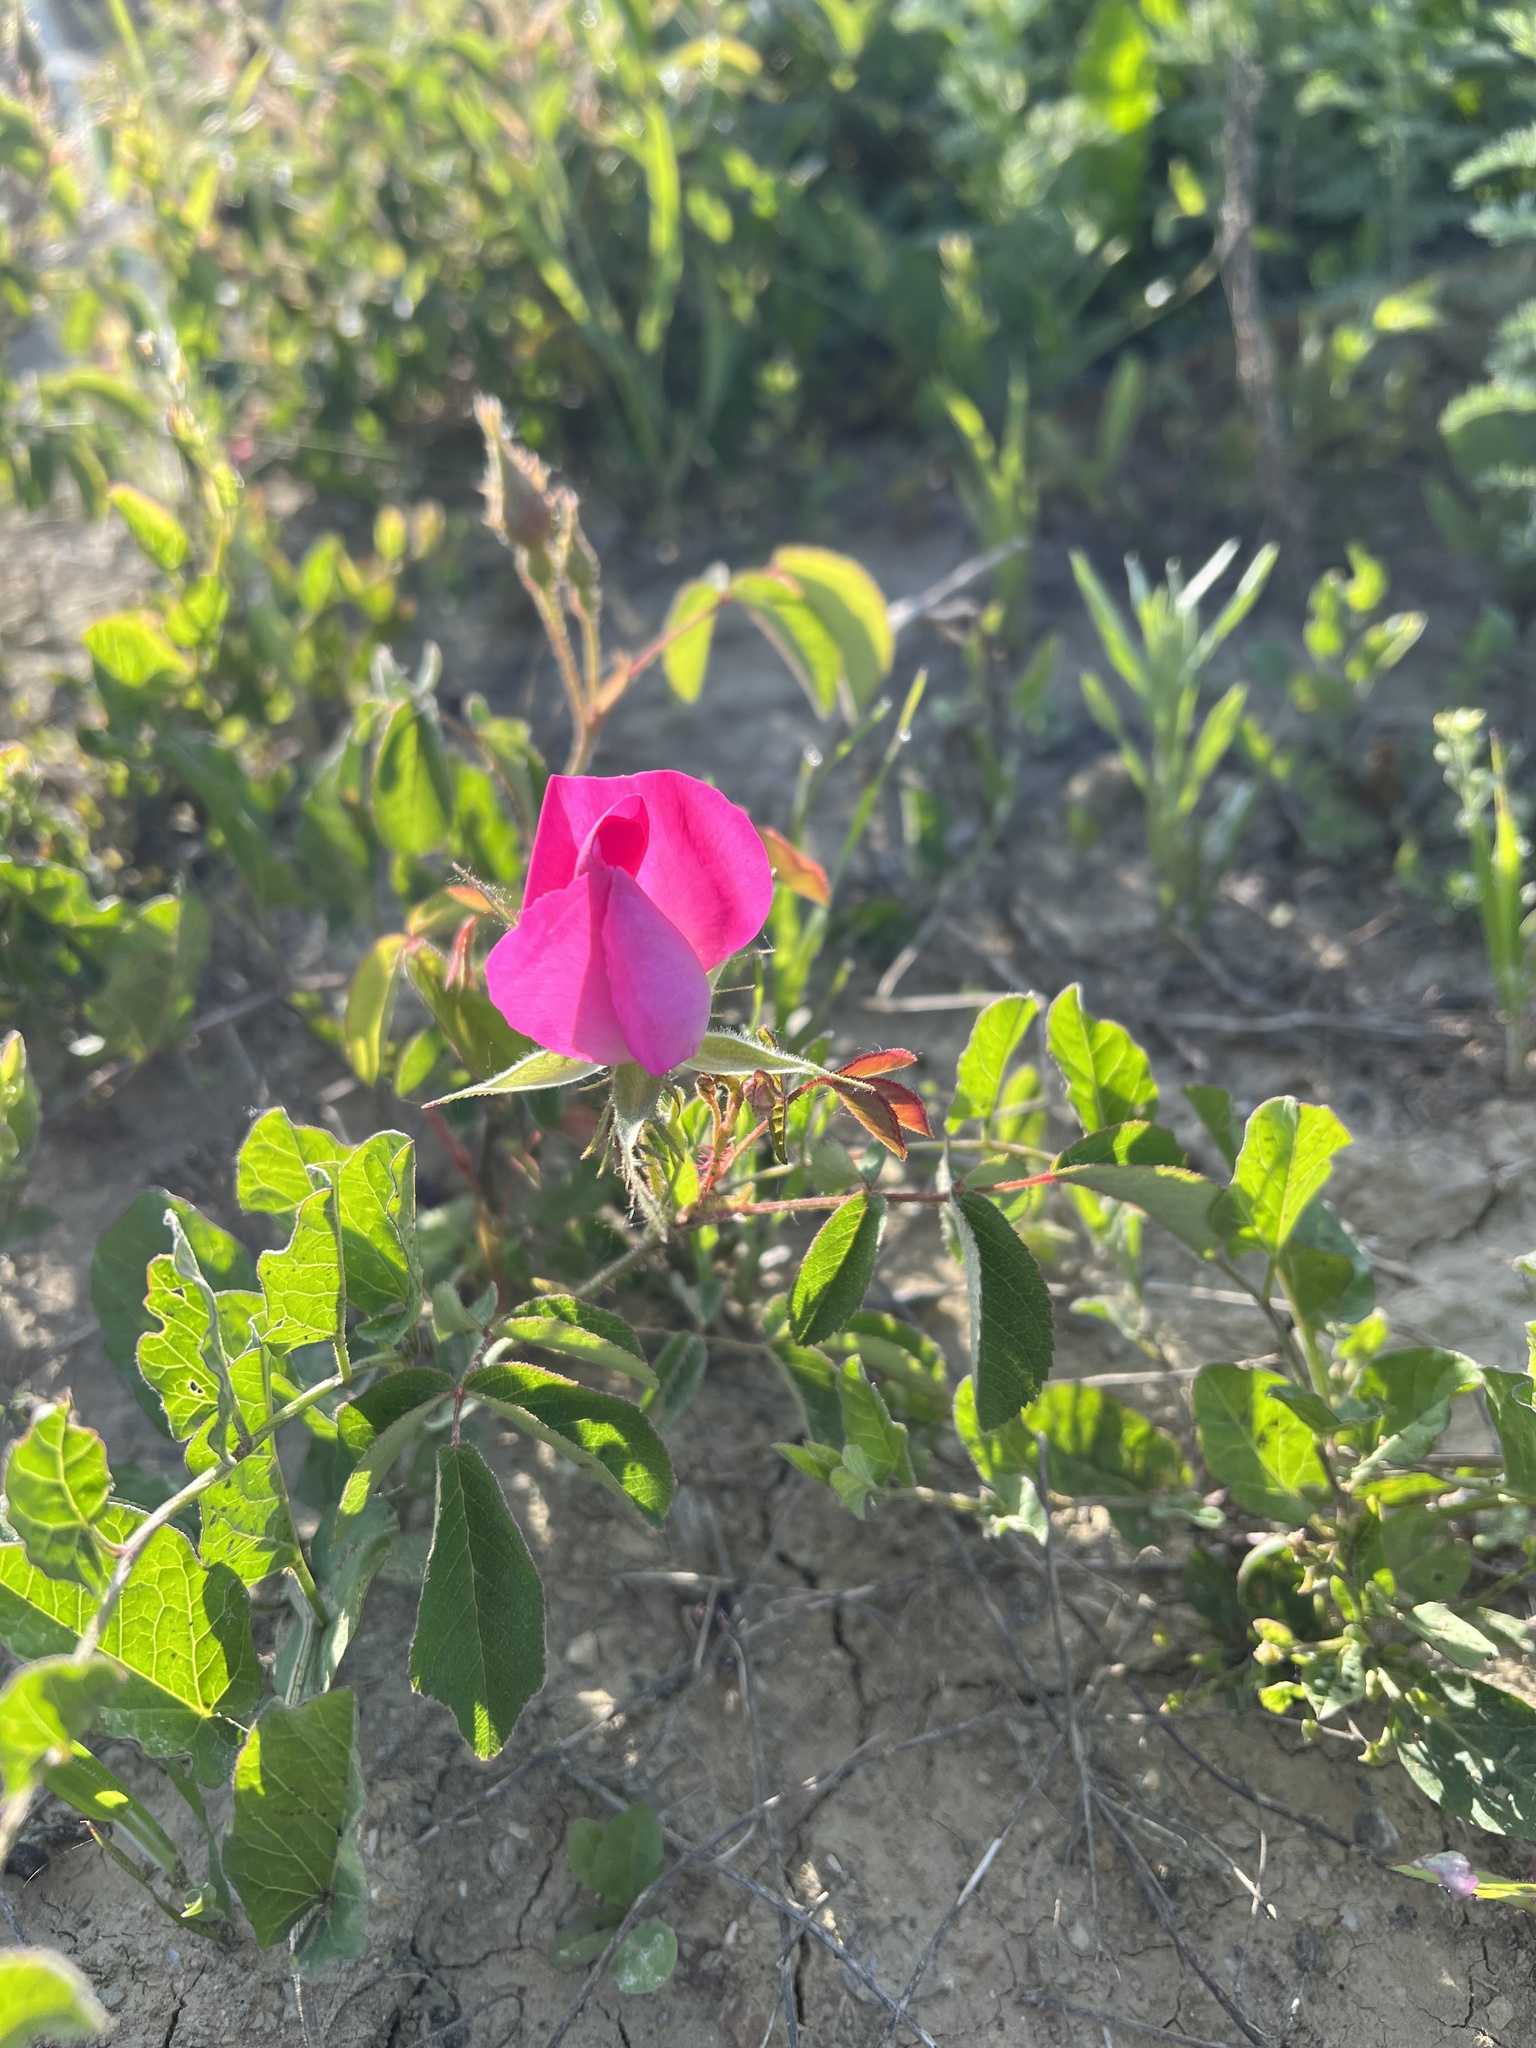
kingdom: Plantae
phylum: Tracheophyta
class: Magnoliopsida
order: Rosales
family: Rosaceae
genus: Rosa
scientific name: Rosa gallica
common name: French rose
